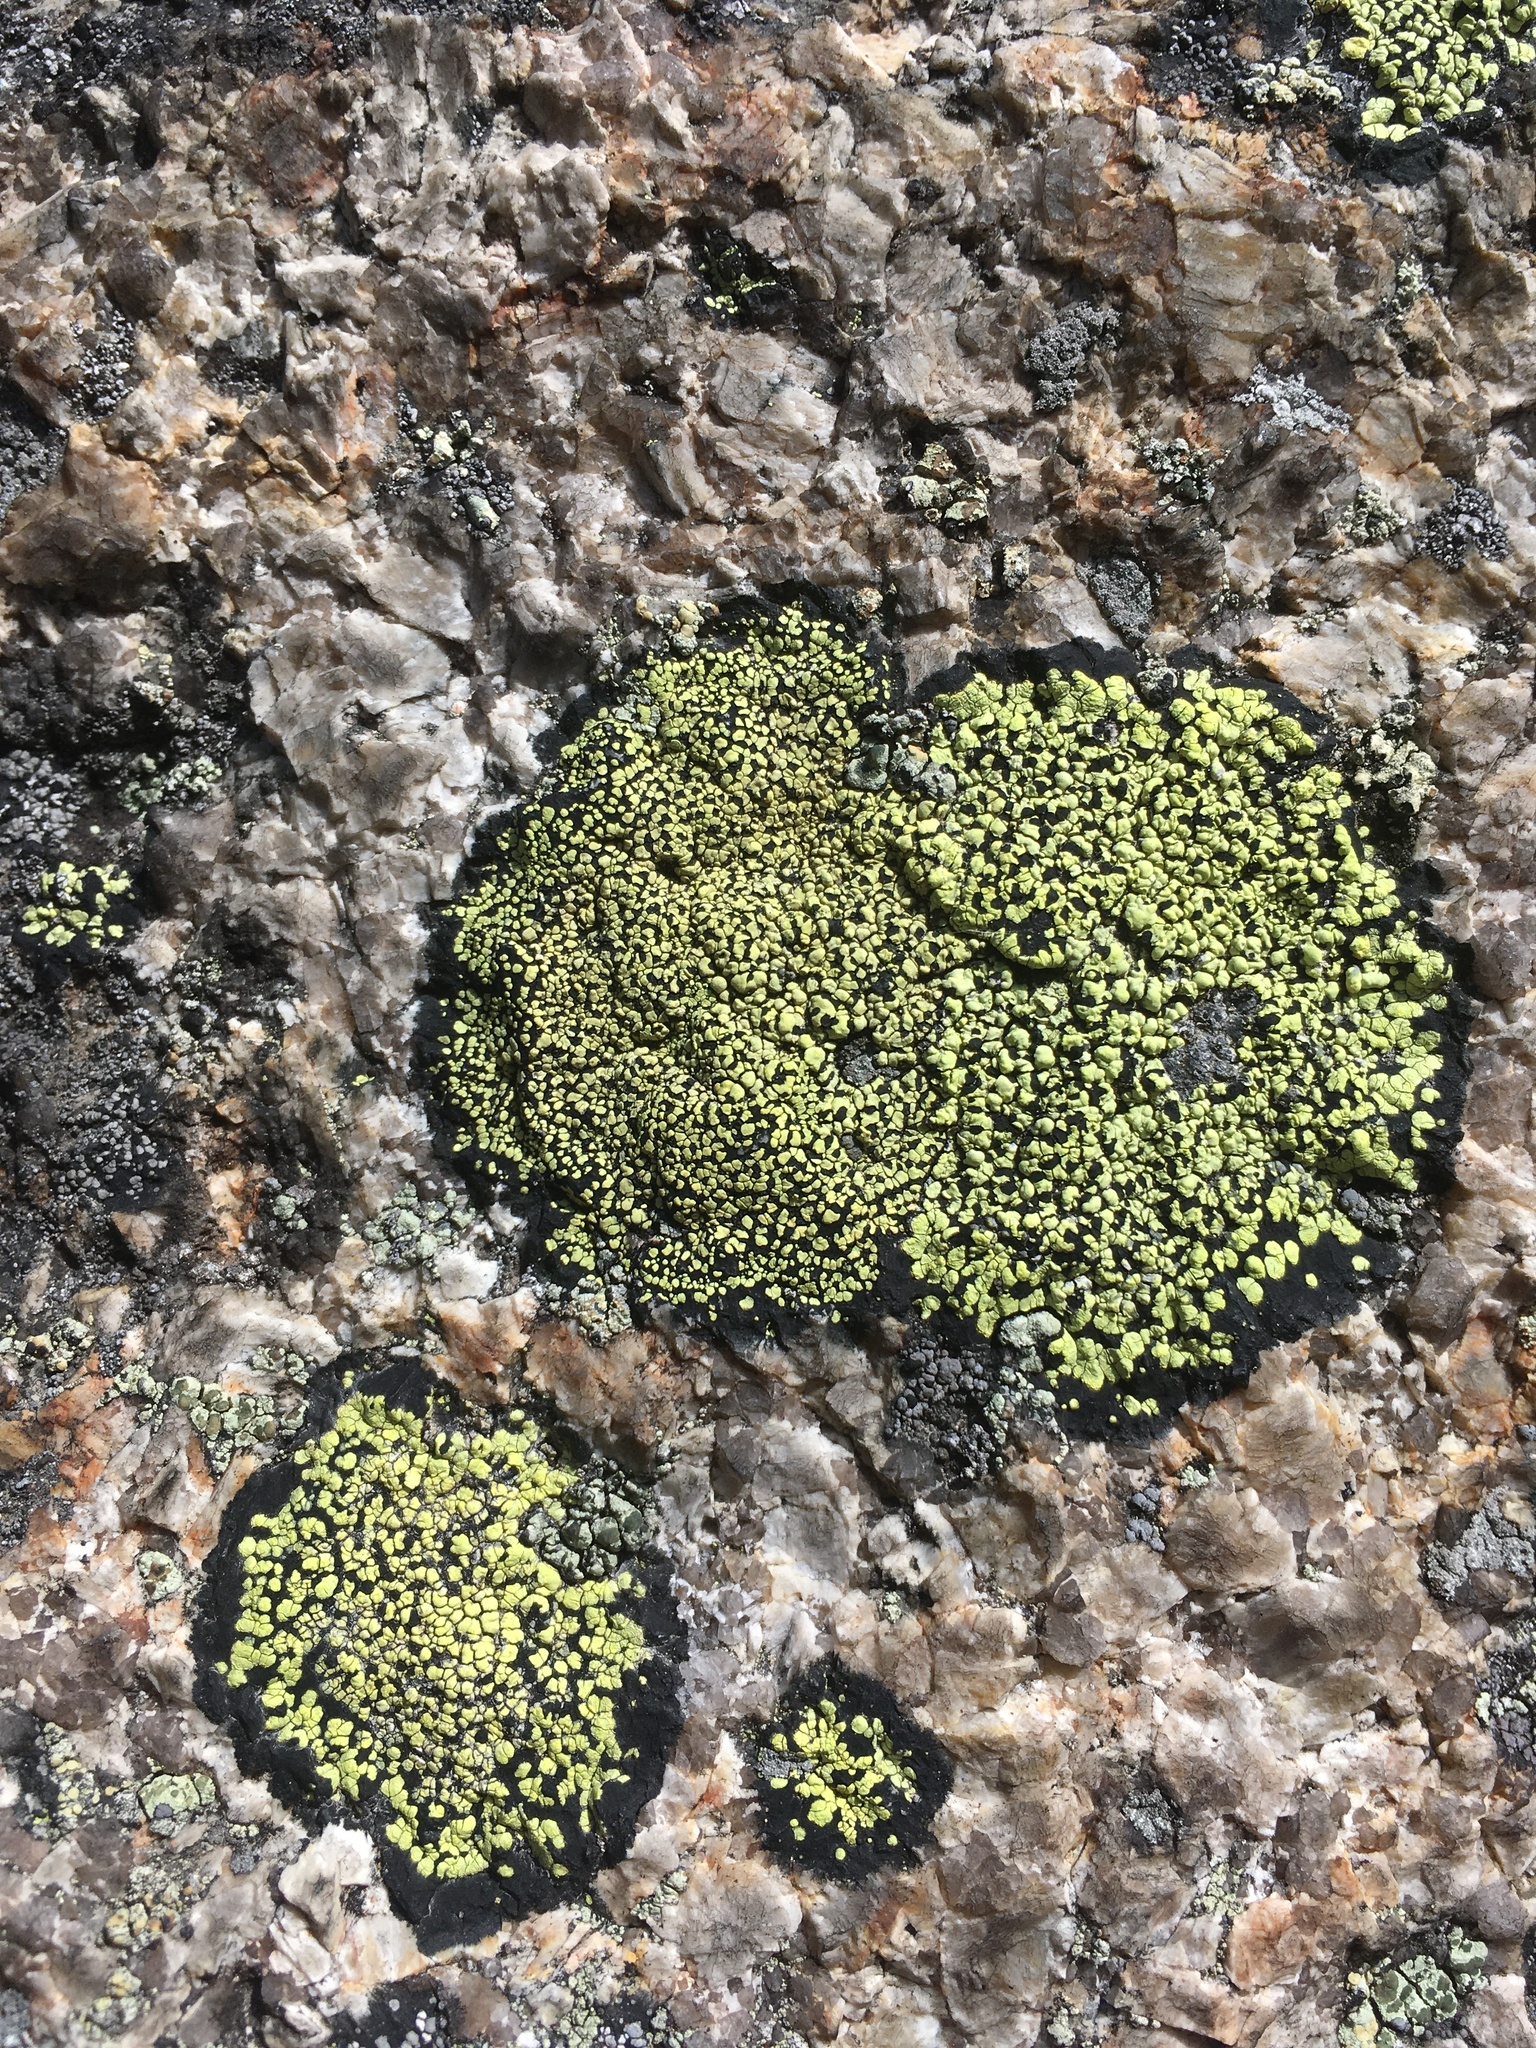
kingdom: Fungi
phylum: Ascomycota
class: Lecanoromycetes
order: Rhizocarpales
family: Rhizocarpaceae
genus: Rhizocarpon
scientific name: Rhizocarpon geographicum
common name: Yellow map lichen
